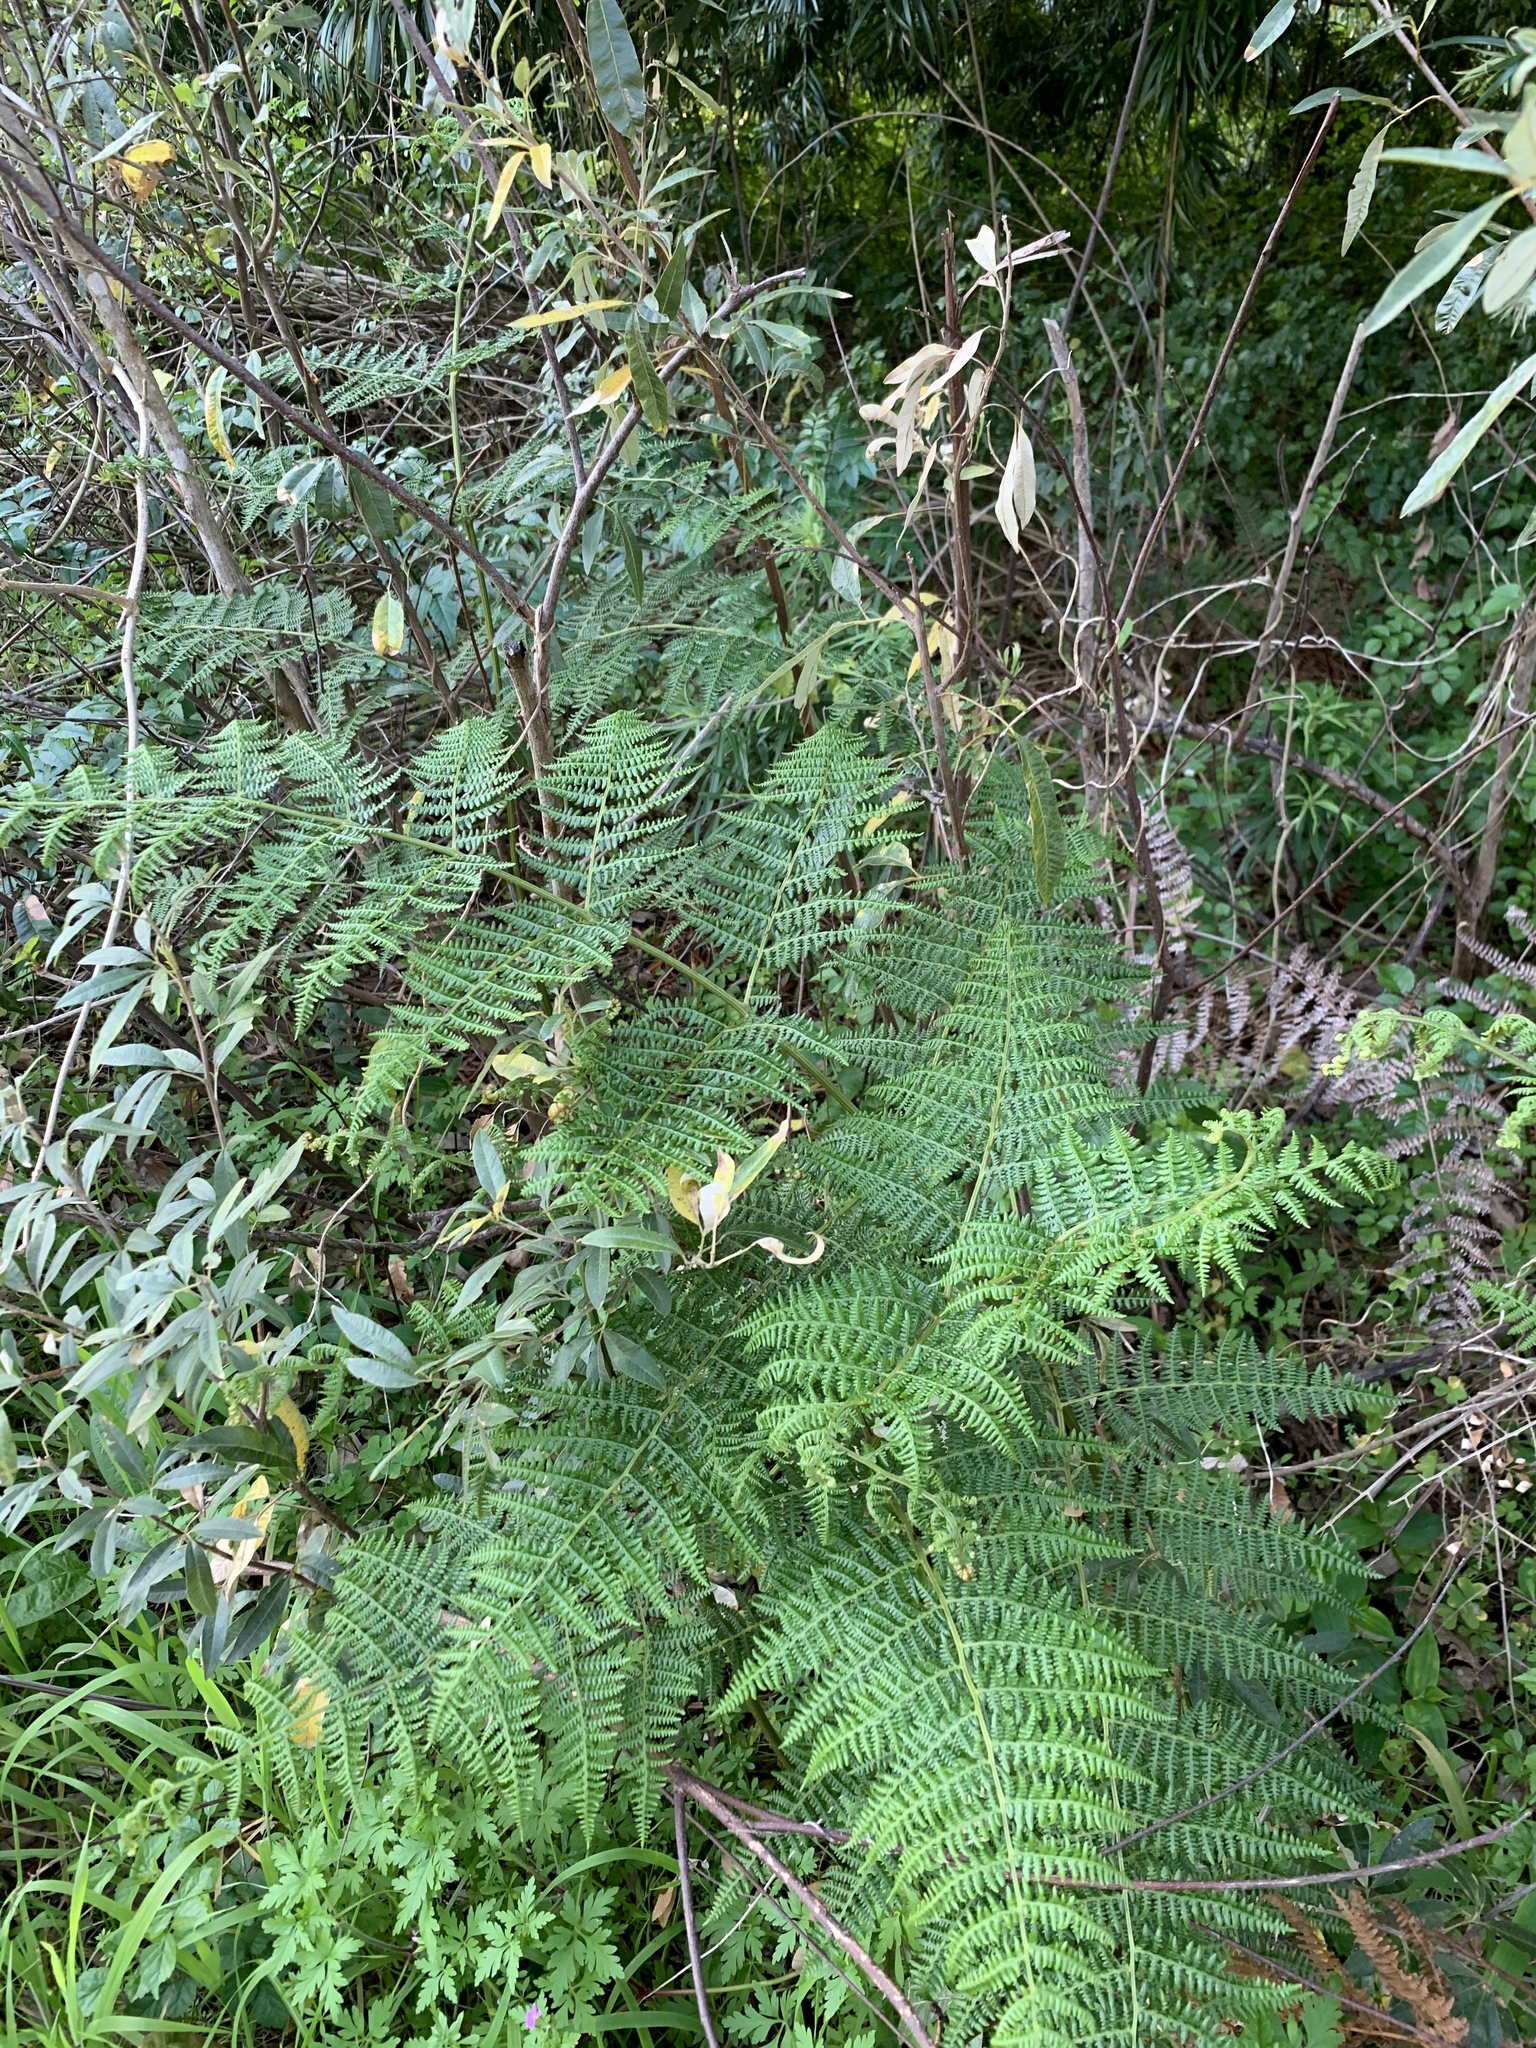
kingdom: Plantae
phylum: Tracheophyta
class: Polypodiopsida
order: Polypodiales
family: Dennstaedtiaceae
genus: Pteridium
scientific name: Pteridium aquilinum
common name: Bracken
